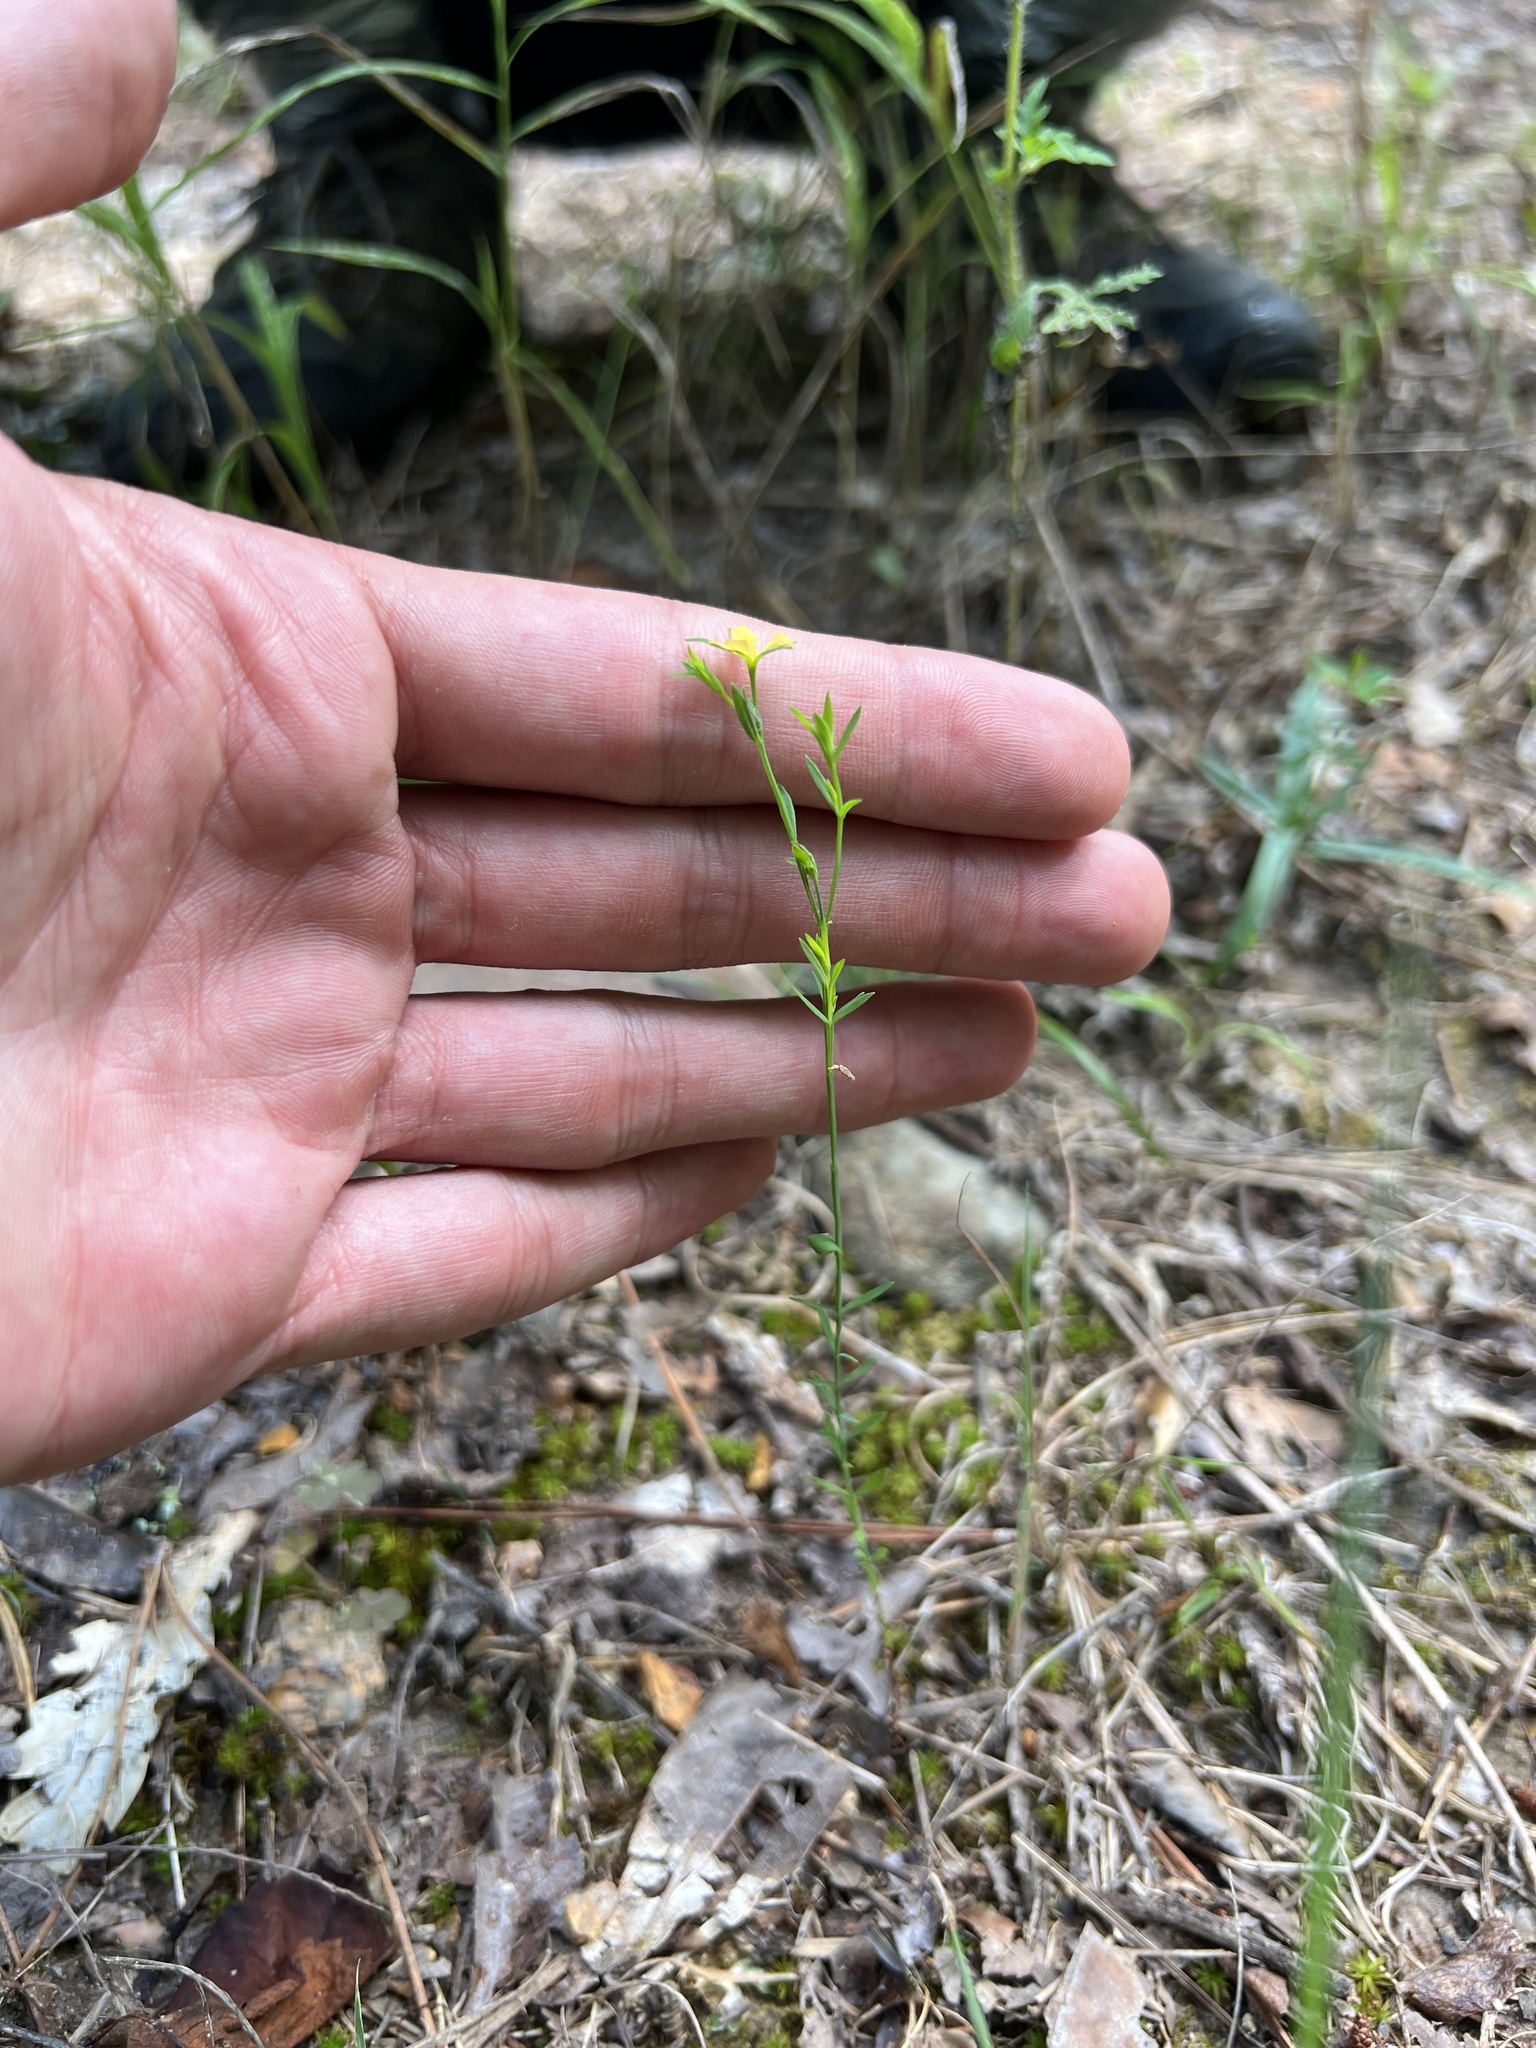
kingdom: Plantae
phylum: Tracheophyta
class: Magnoliopsida
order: Malpighiales
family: Hypericaceae
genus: Hypericum
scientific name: Hypericum drummondii
